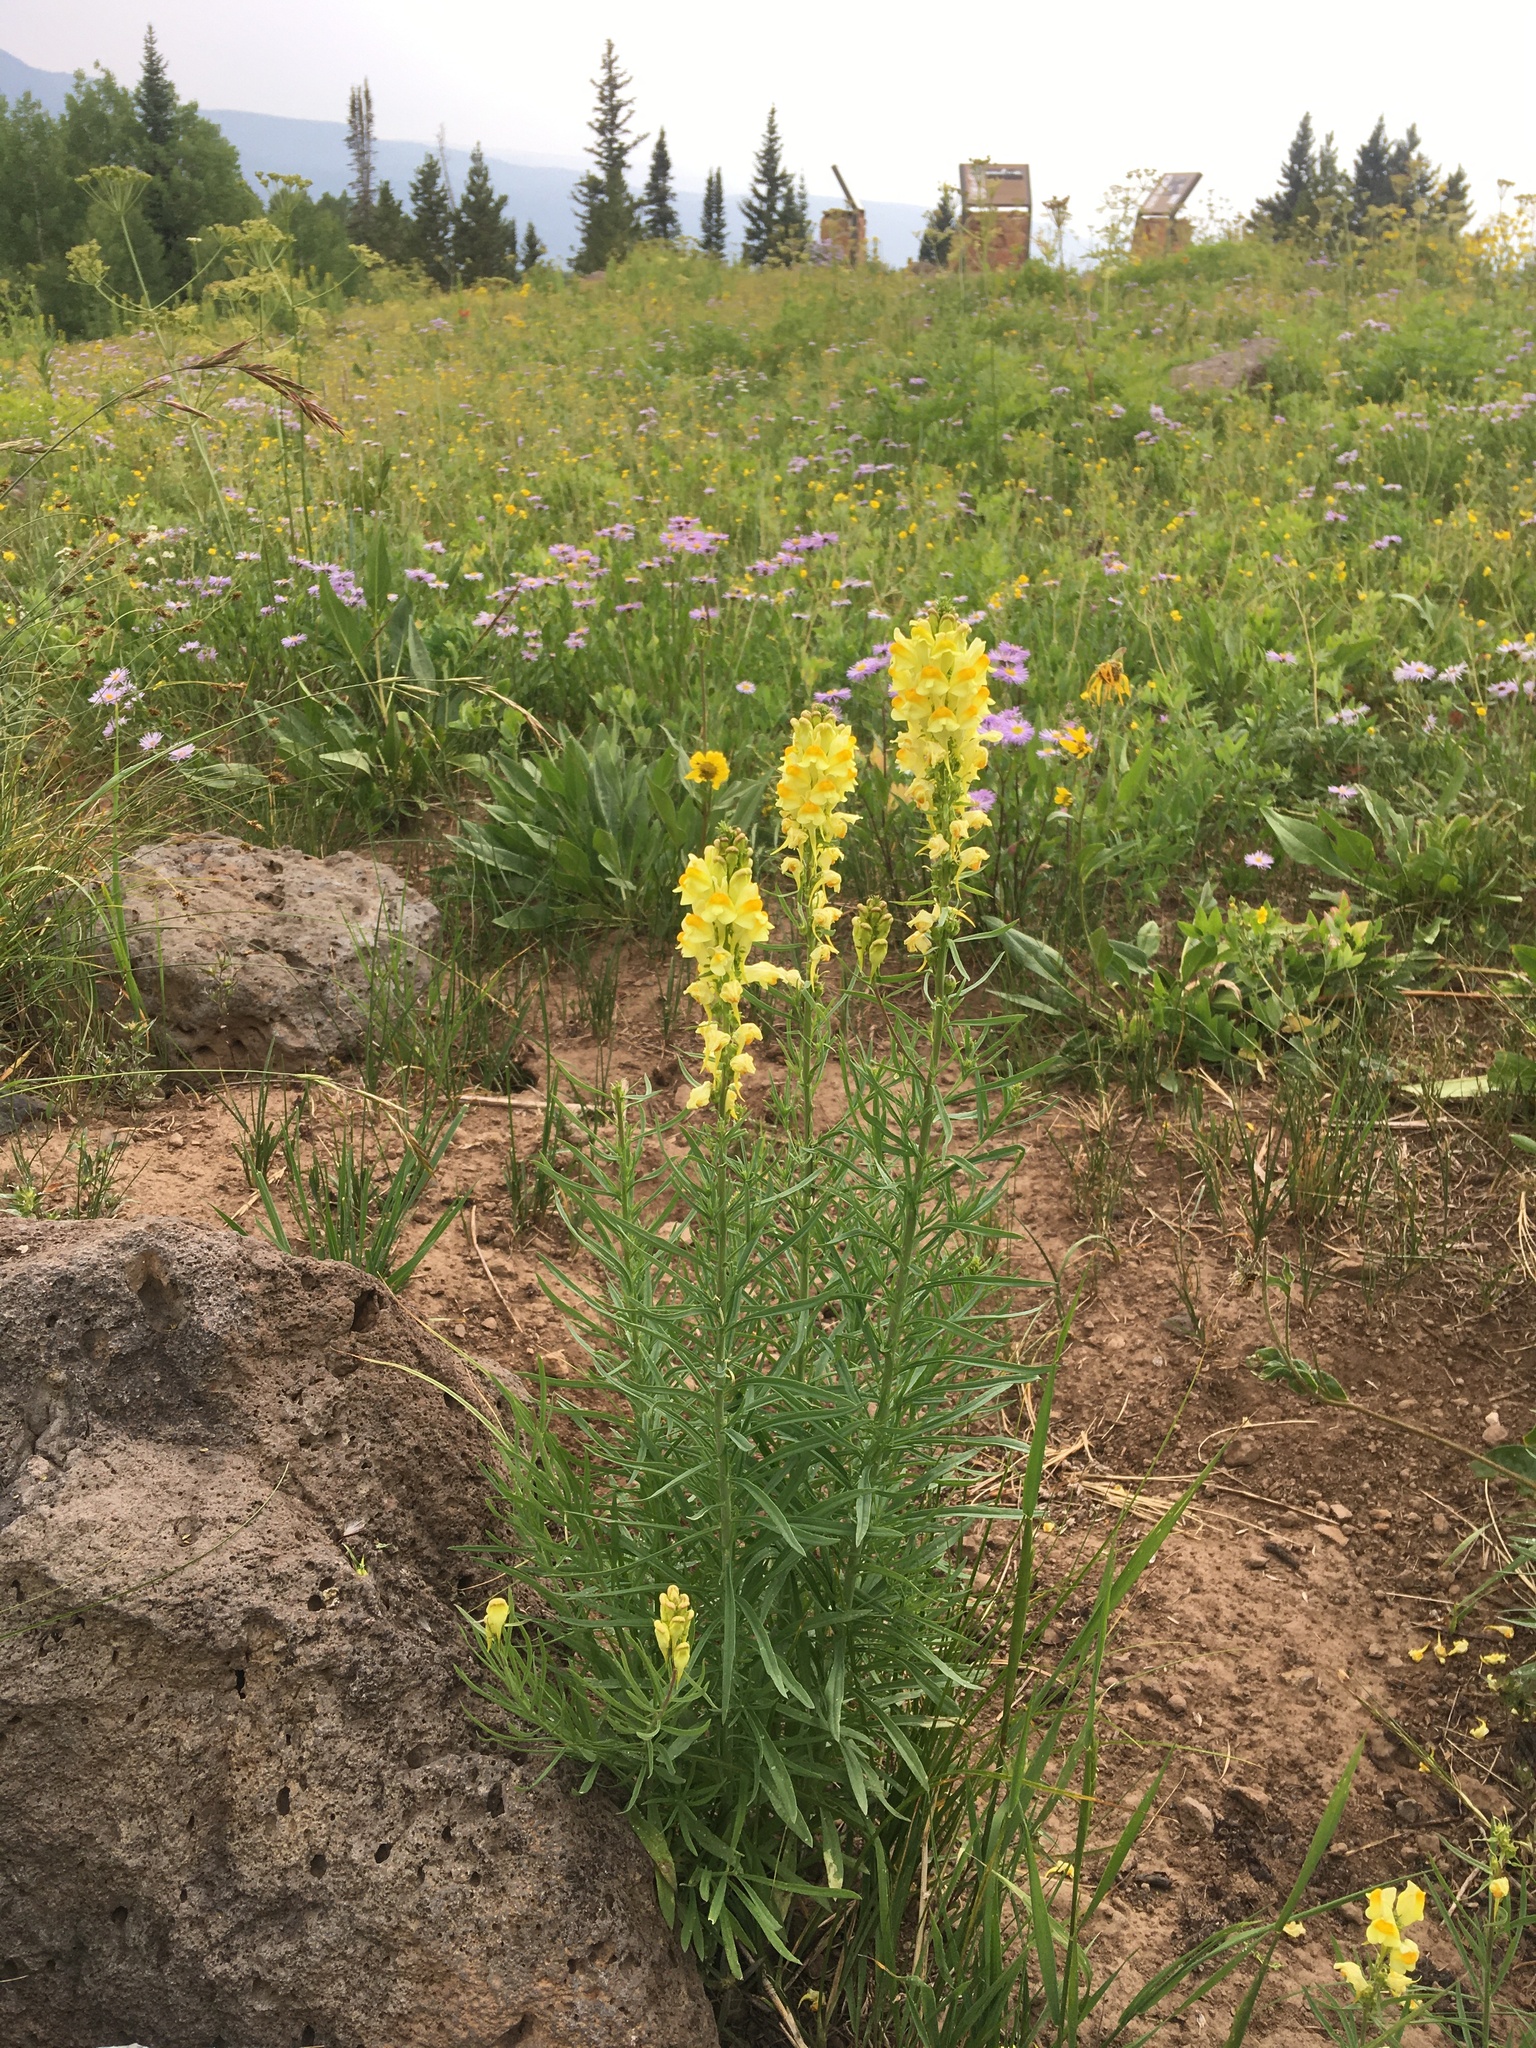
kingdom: Plantae
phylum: Tracheophyta
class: Magnoliopsida
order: Lamiales
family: Plantaginaceae
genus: Linaria
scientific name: Linaria vulgaris
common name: Butter and eggs
